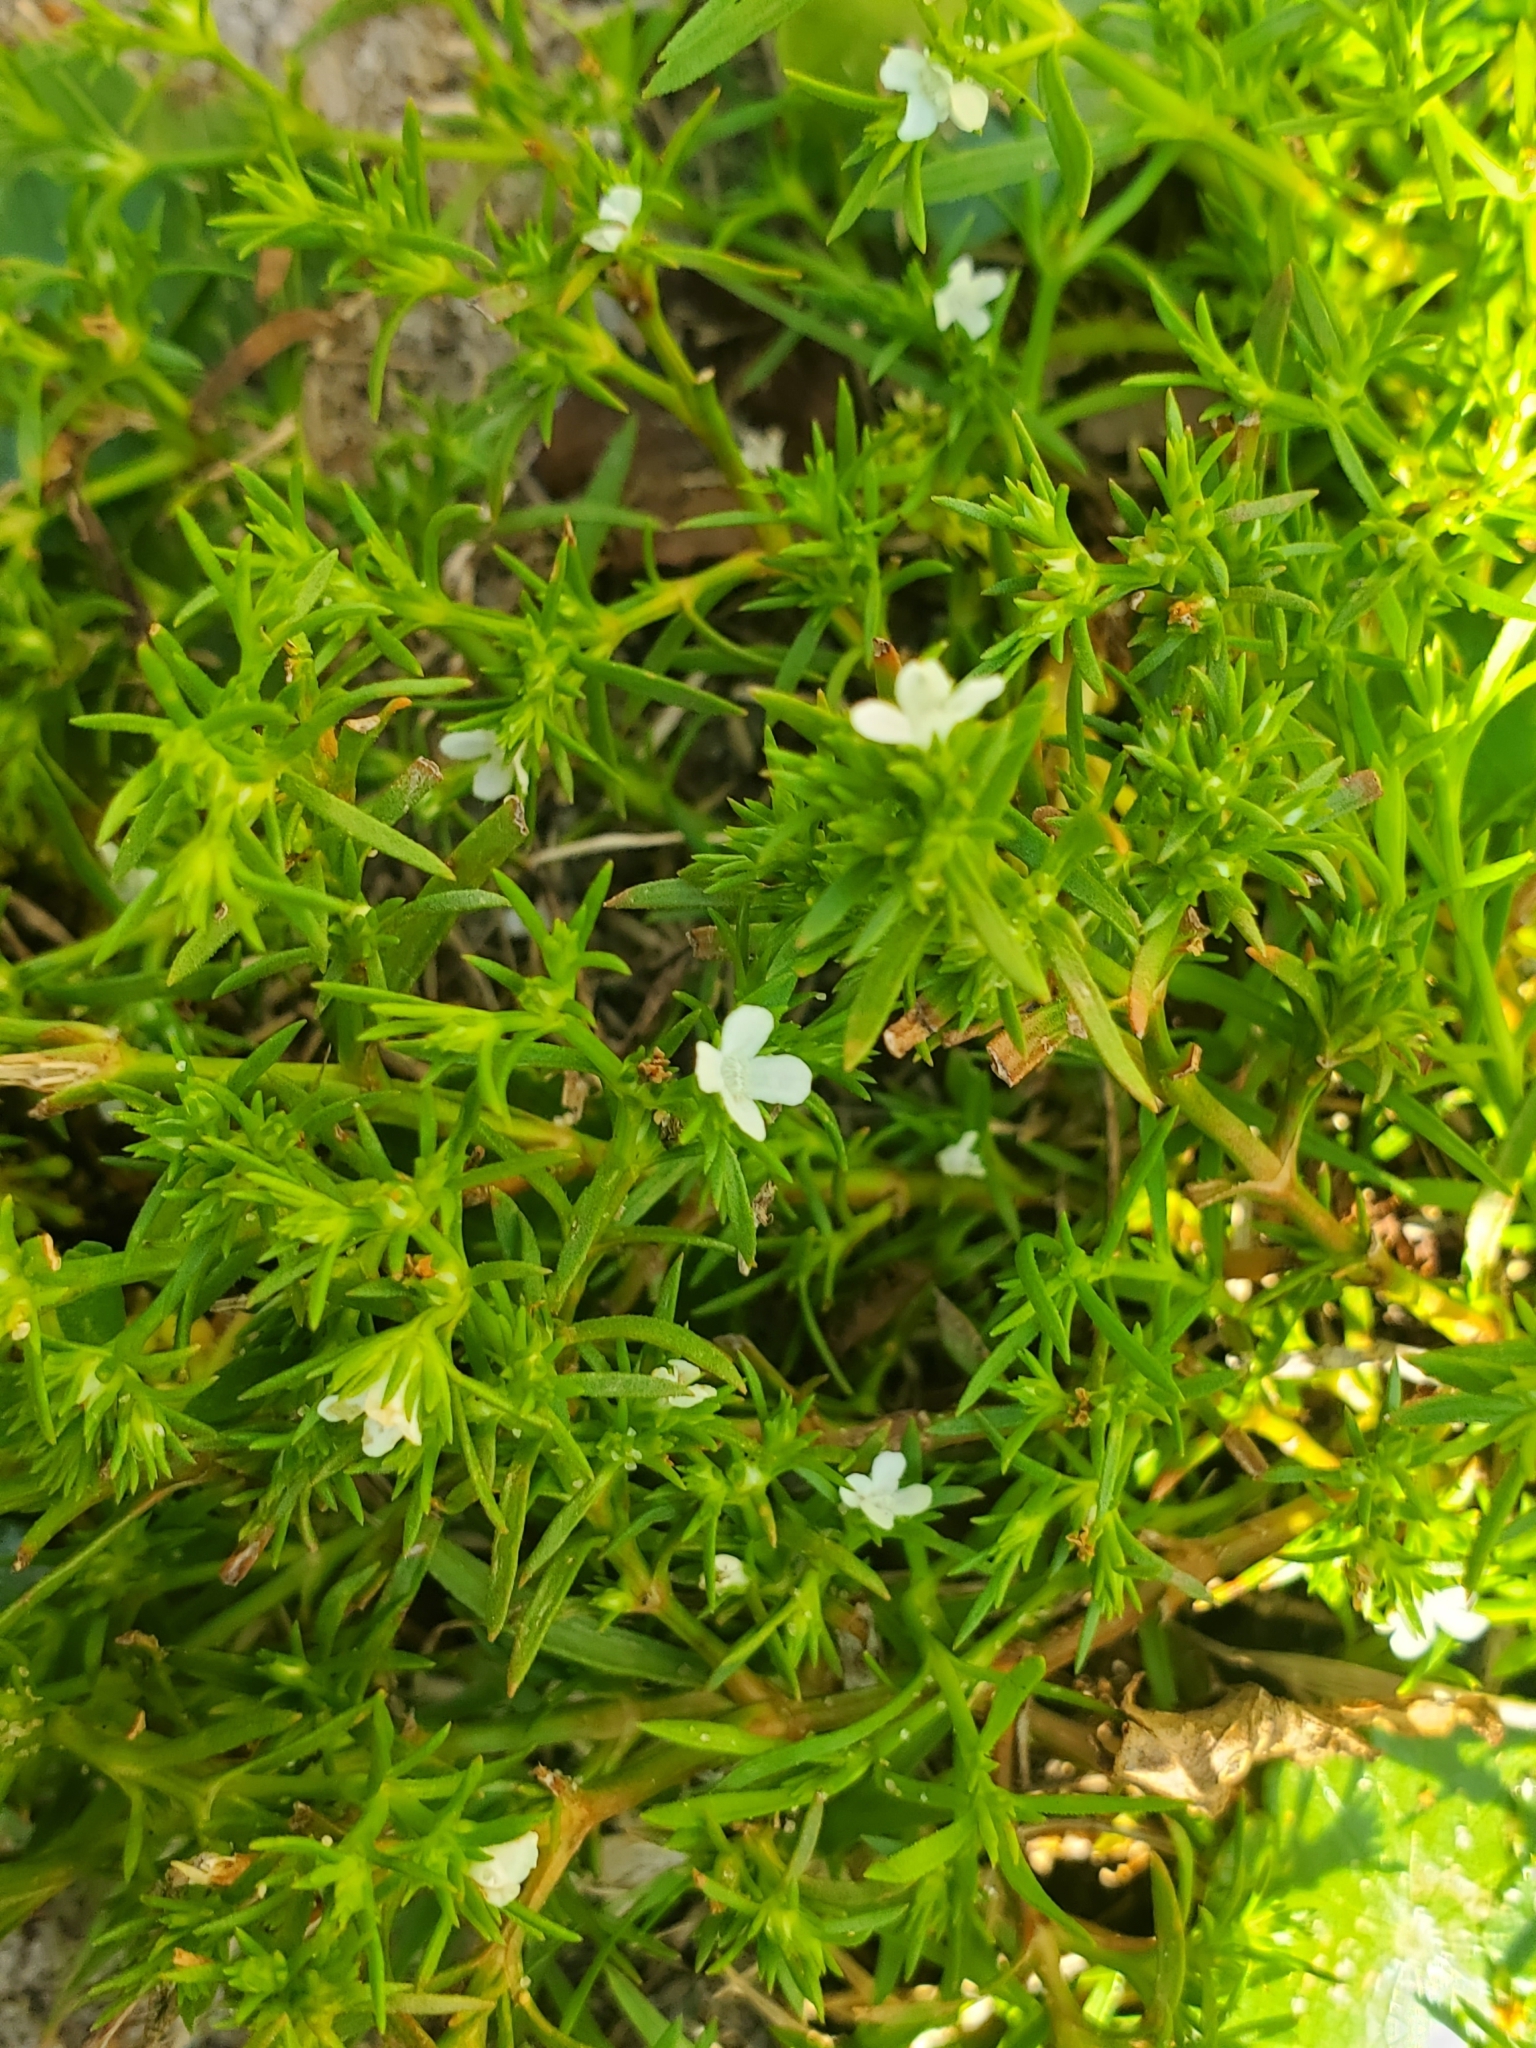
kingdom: Plantae
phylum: Tracheophyta
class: Magnoliopsida
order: Lamiales
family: Tetrachondraceae
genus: Polypremum
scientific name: Polypremum procumbens
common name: Juniper-leaf
